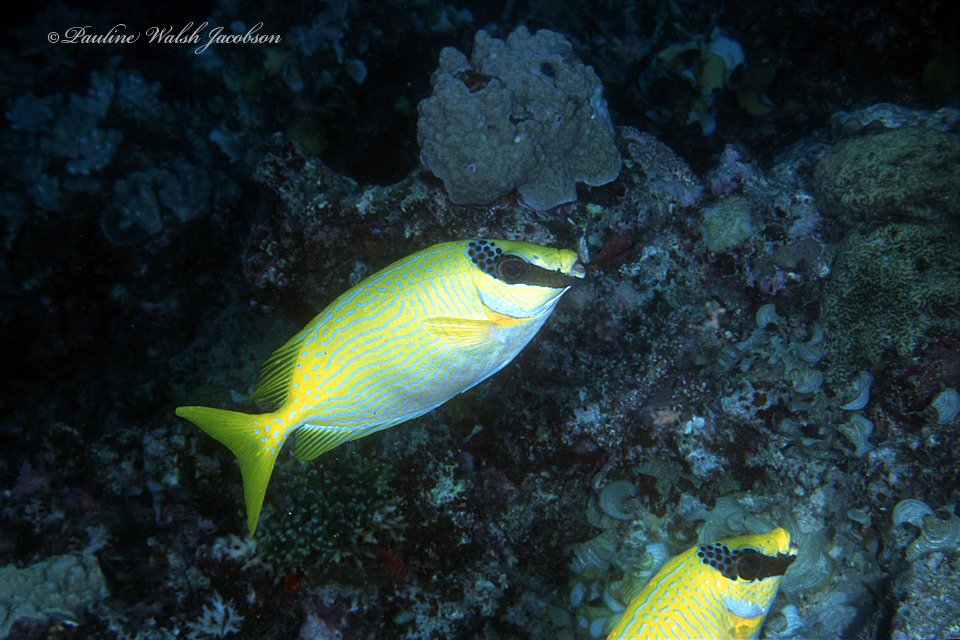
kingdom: Animalia
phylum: Chordata
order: Perciformes
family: Siganidae
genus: Siganus
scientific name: Siganus puellus
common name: Masked rabbitfish
